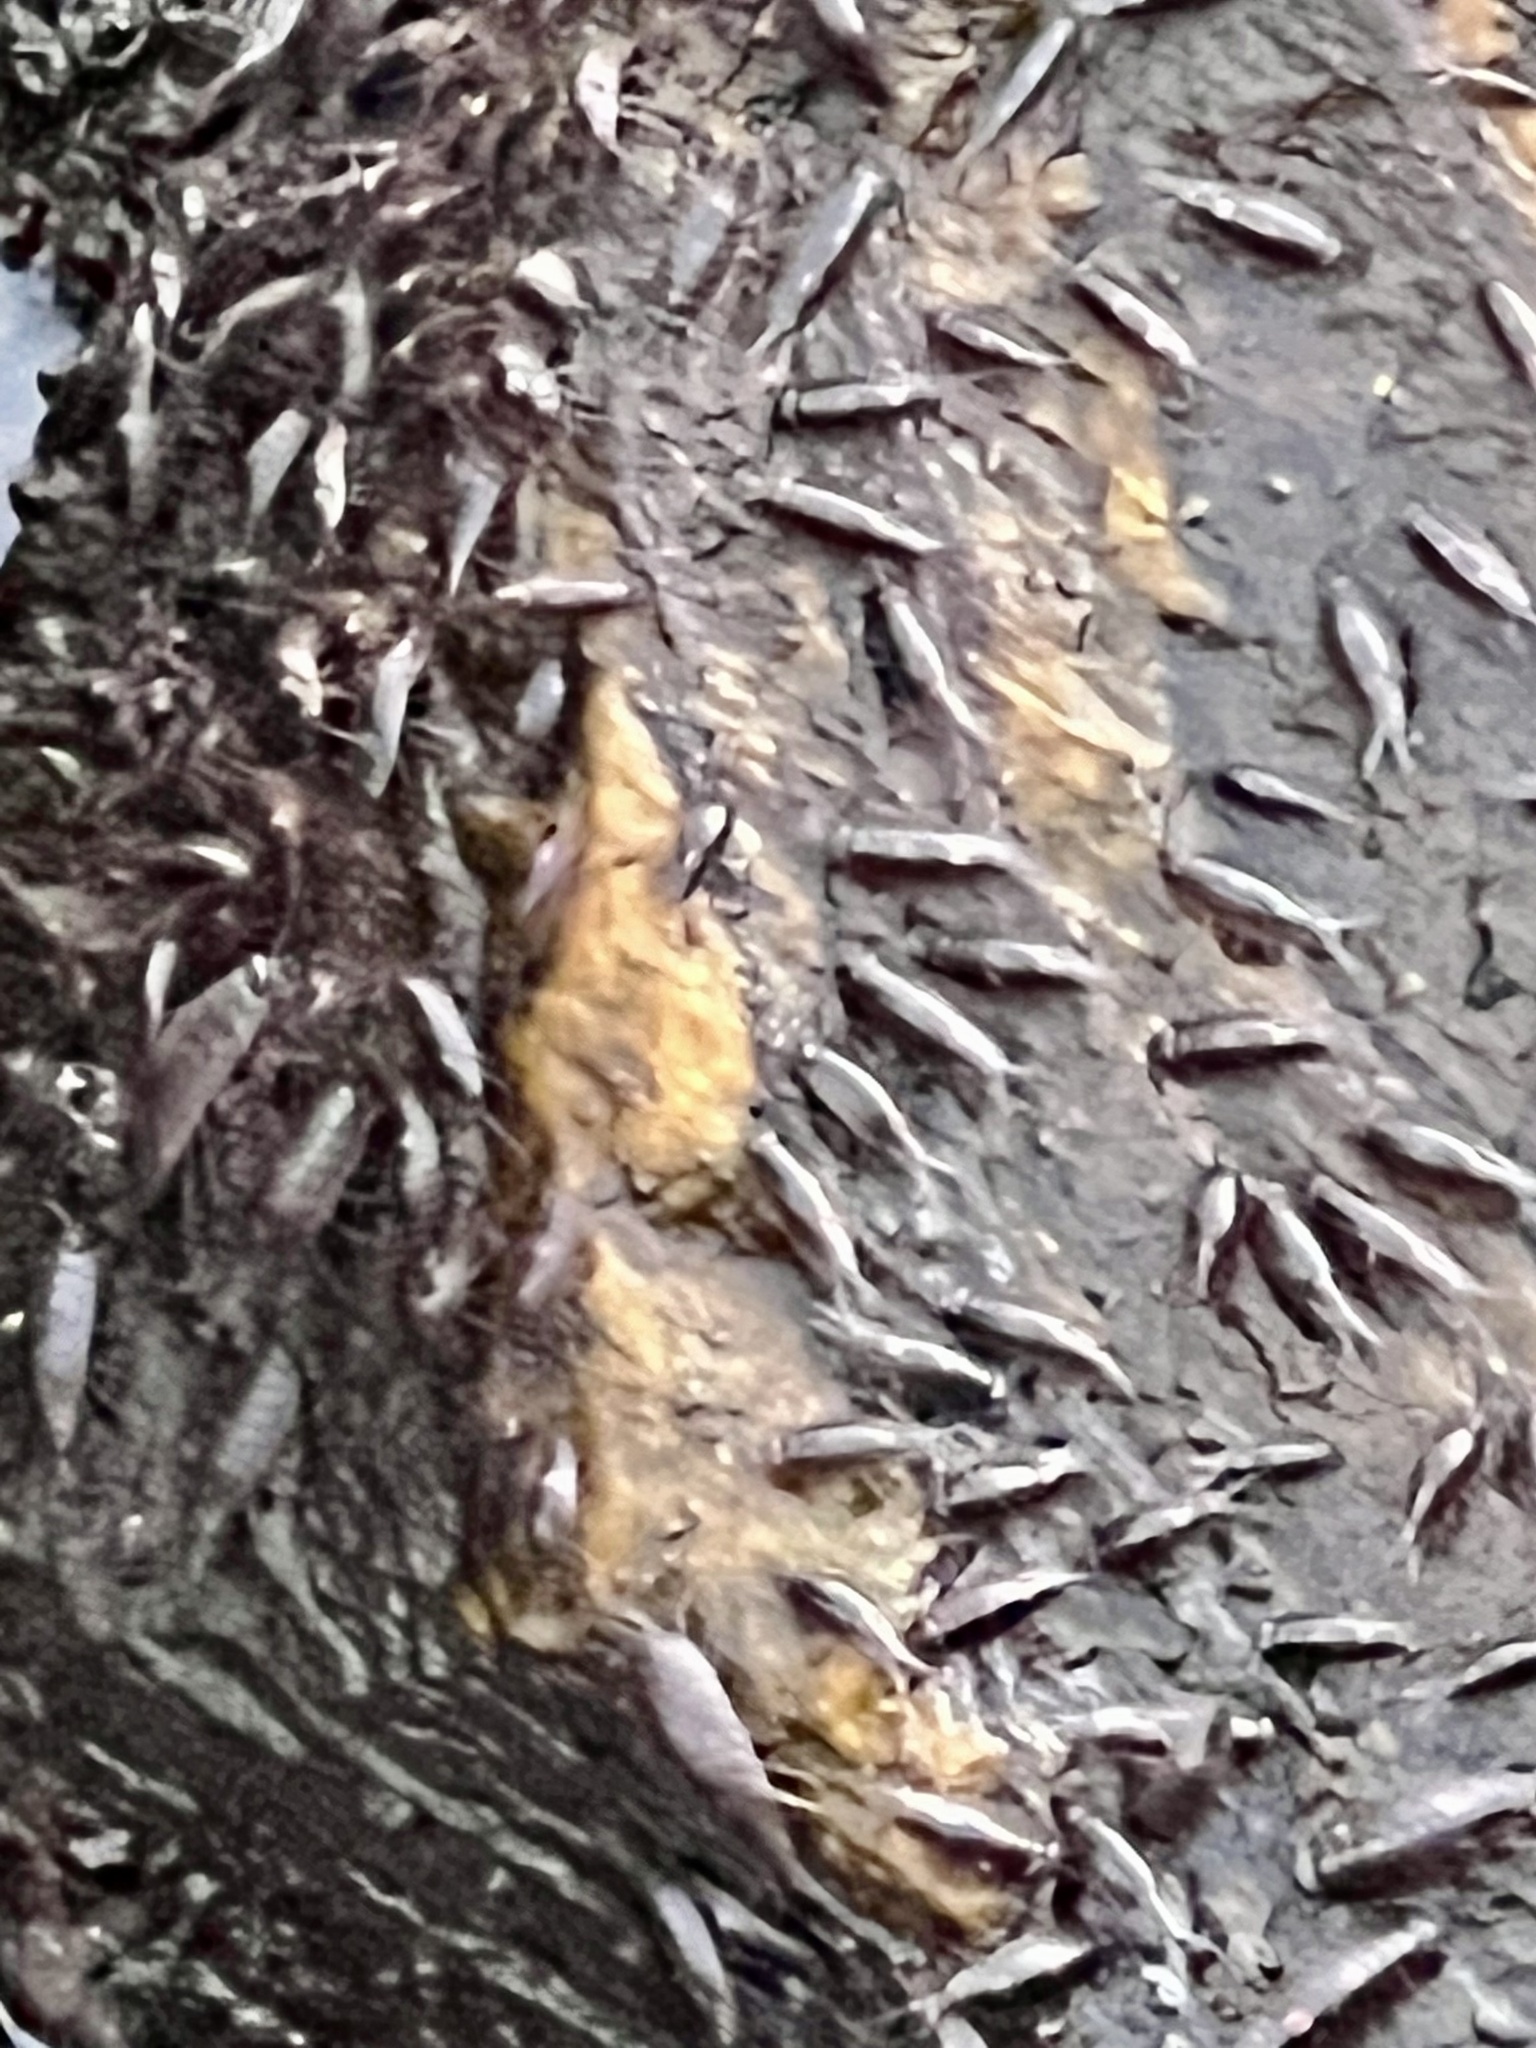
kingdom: Animalia
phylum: Arthropoda
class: Malacostraca
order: Isopoda
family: Ligiidae
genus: Ligia
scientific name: Ligia exotica
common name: Wharf roach
